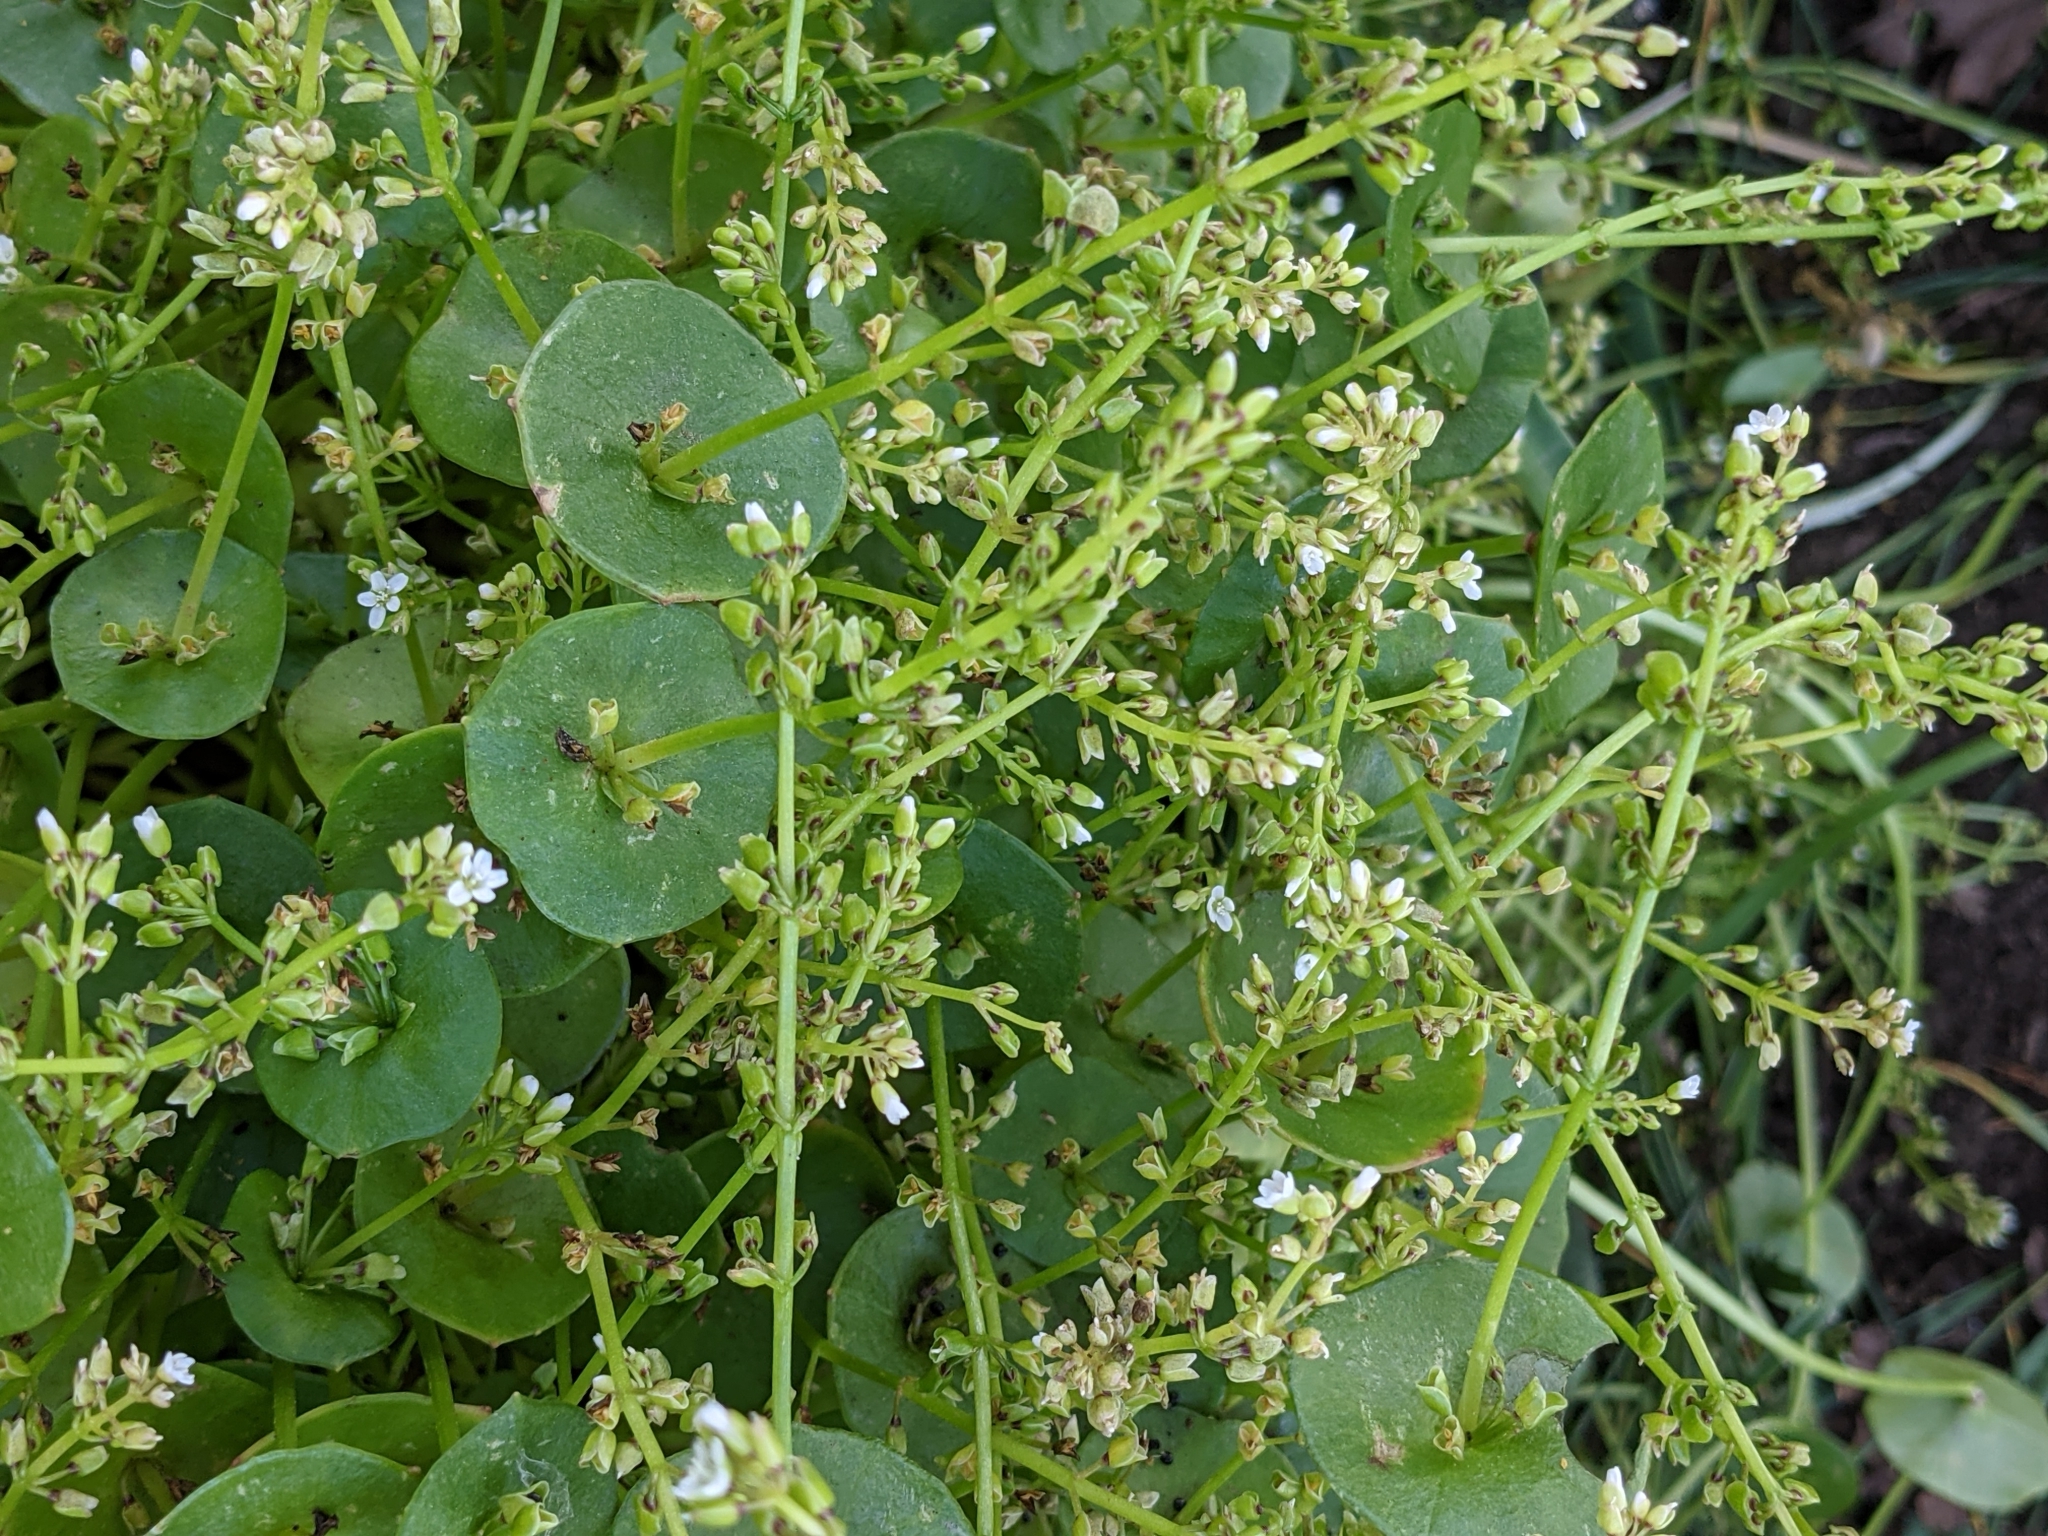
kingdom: Plantae
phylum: Tracheophyta
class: Magnoliopsida
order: Caryophyllales
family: Montiaceae
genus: Claytonia
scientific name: Claytonia perfoliata
